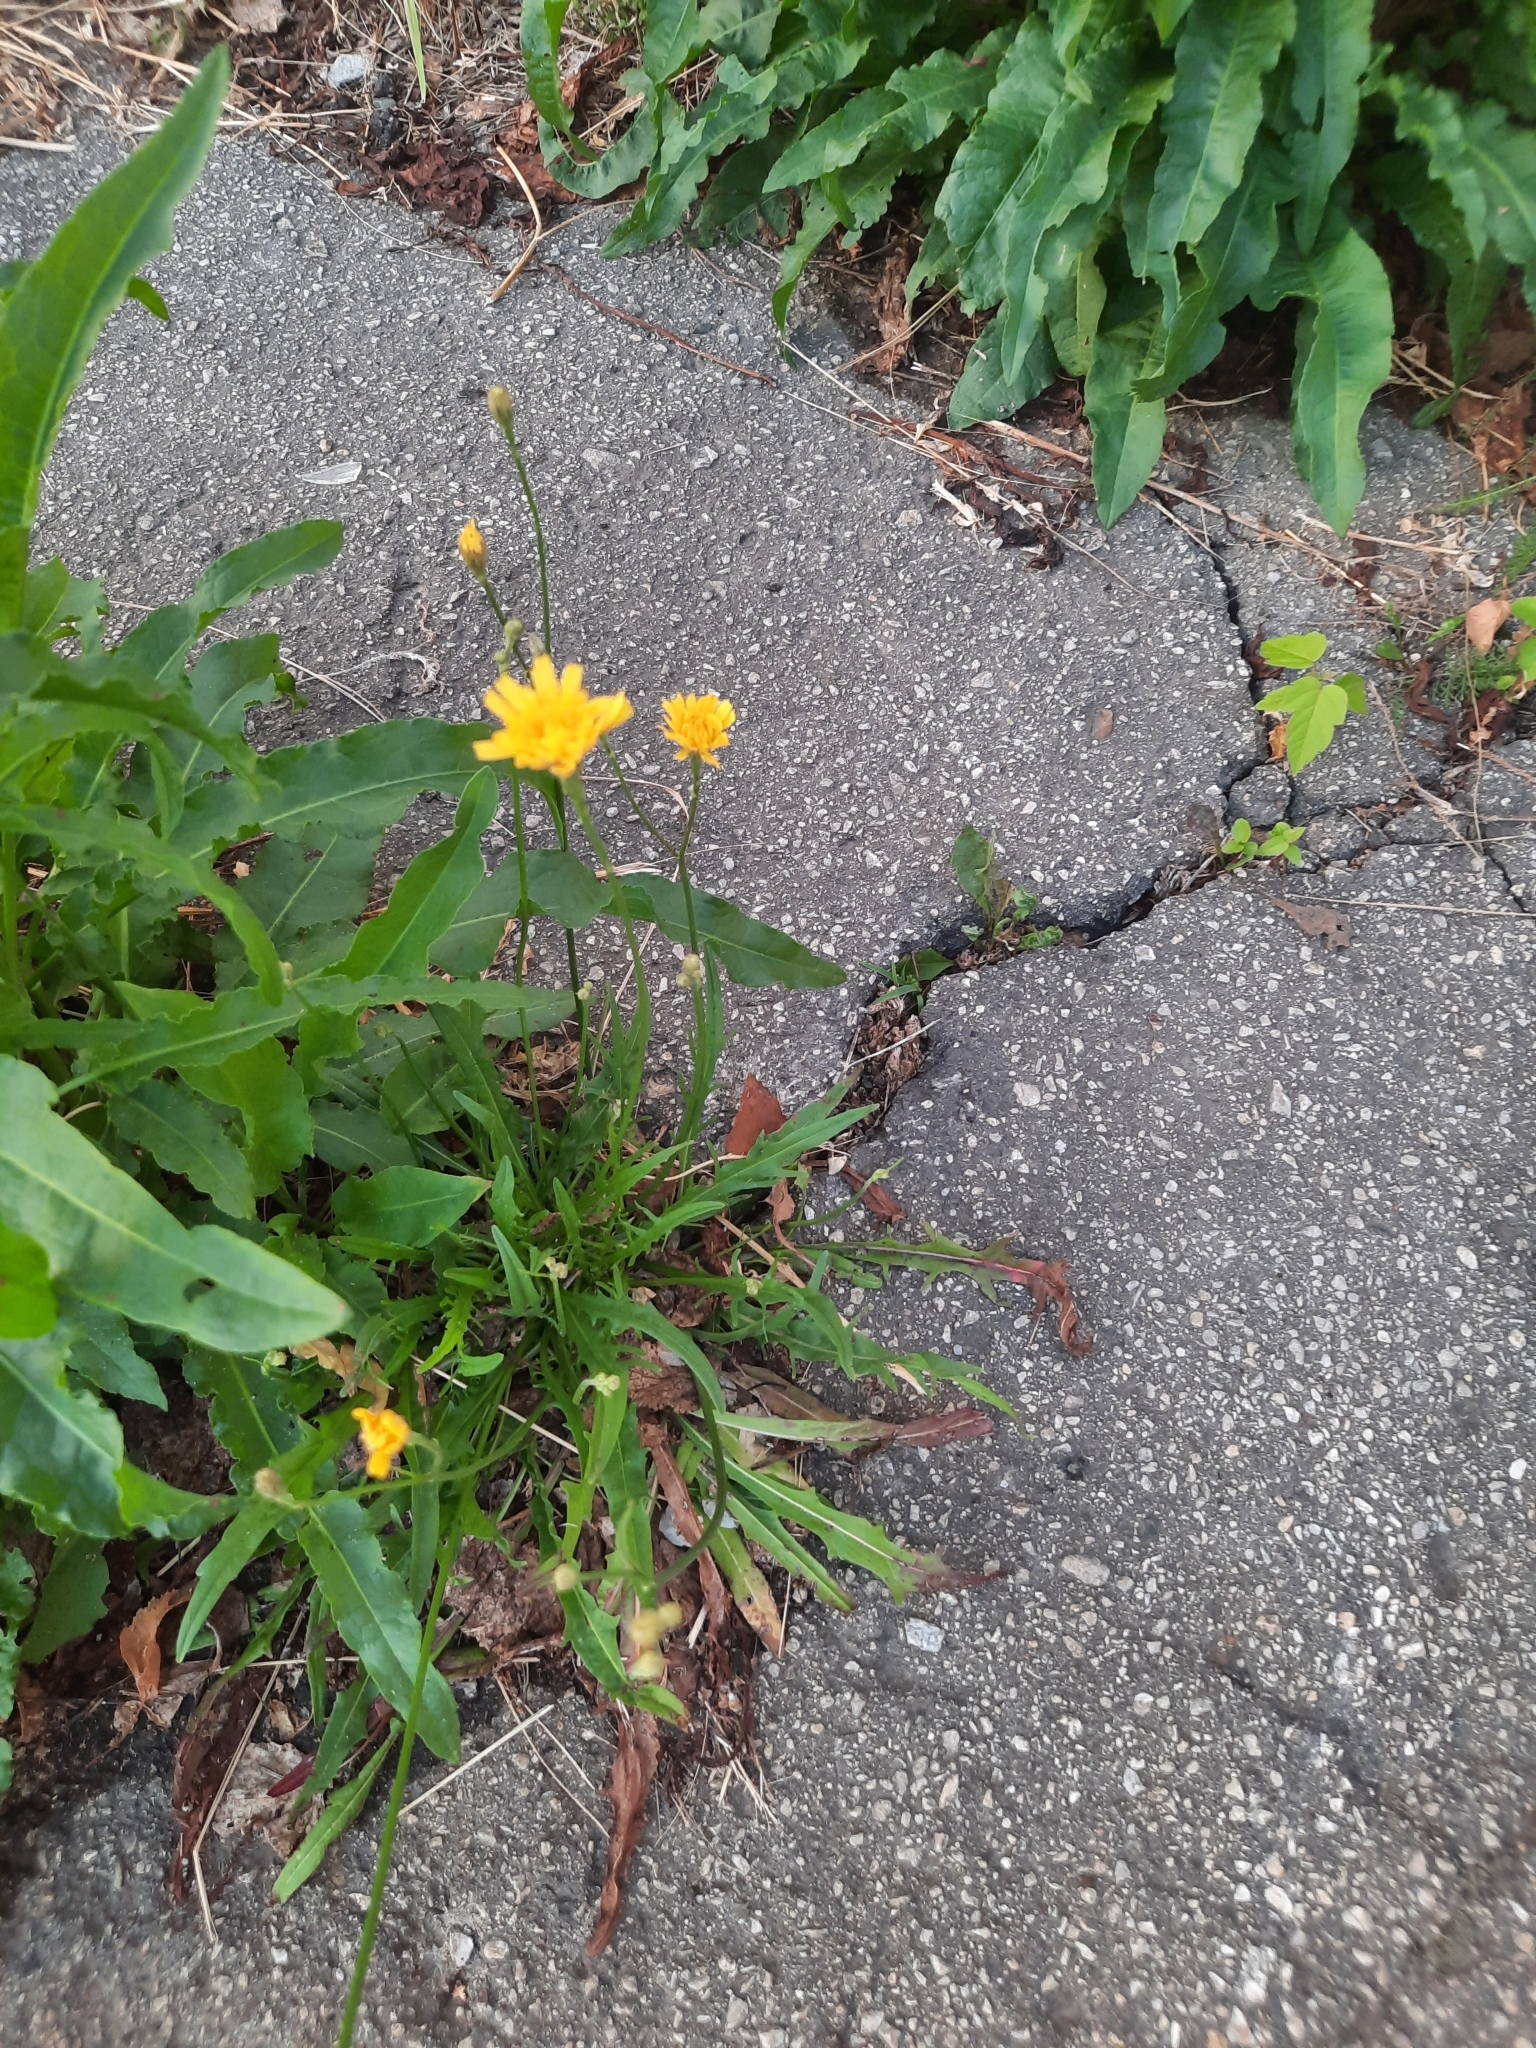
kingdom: Plantae
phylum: Tracheophyta
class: Magnoliopsida
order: Asterales
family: Asteraceae
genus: Scorzoneroides
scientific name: Scorzoneroides autumnalis
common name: Autumn hawkbit
